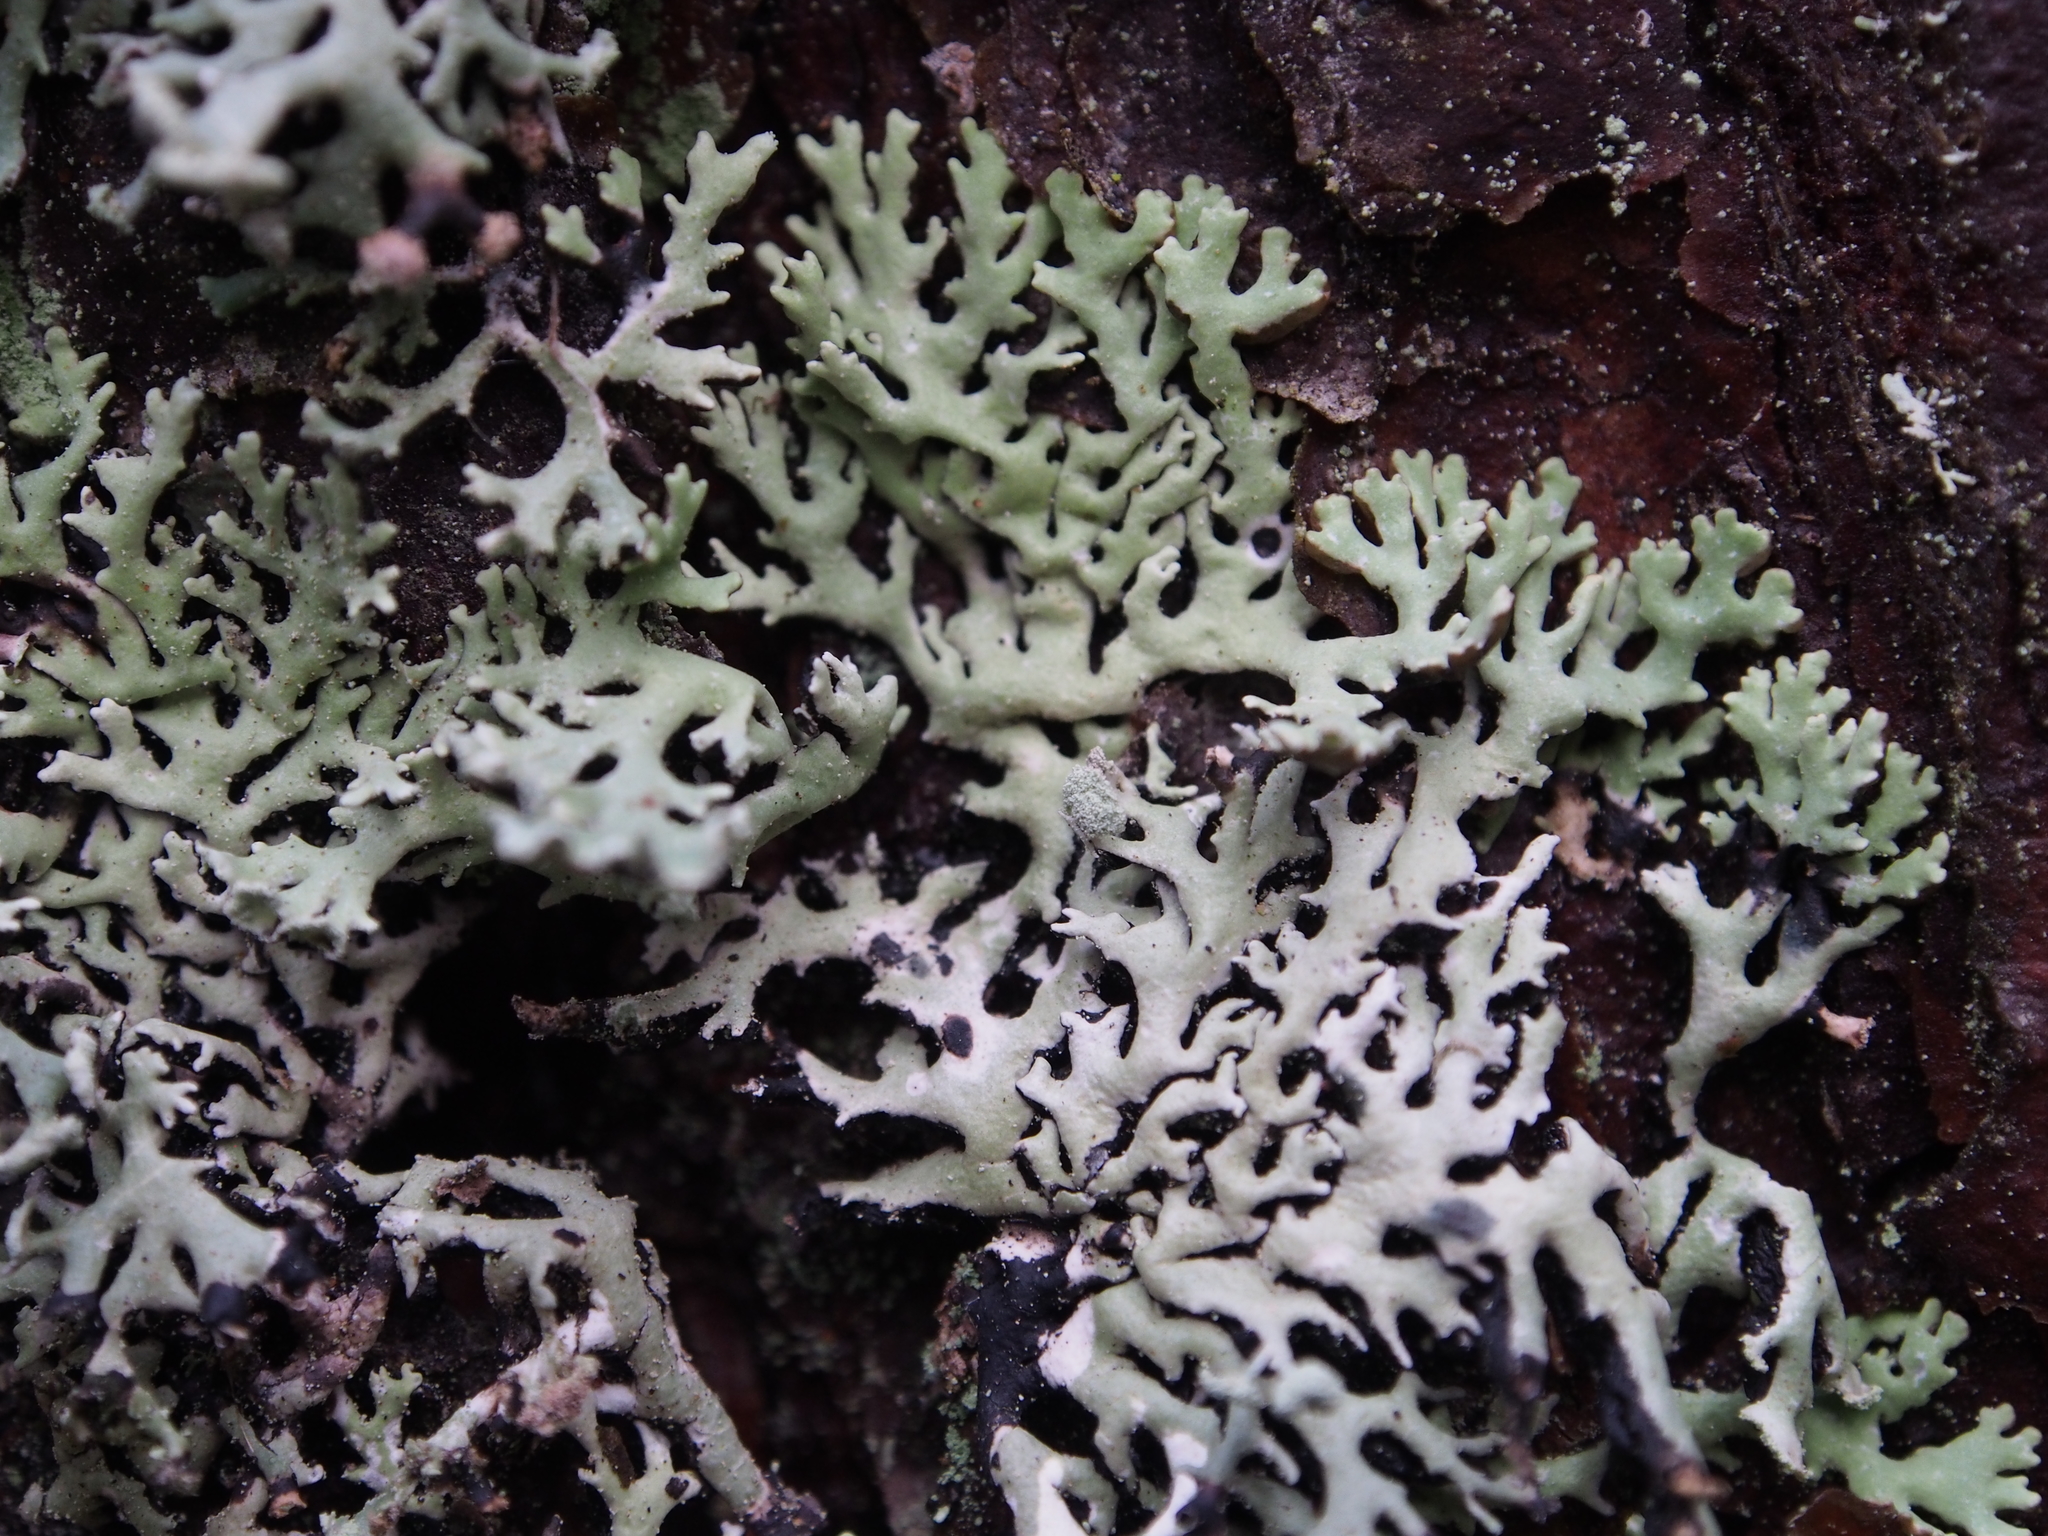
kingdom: Fungi
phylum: Ascomycota
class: Lecanoromycetes
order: Lecanorales
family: Parmeliaceae
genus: Hypogymnia
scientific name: Hypogymnia physodes
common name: Dark crottle
